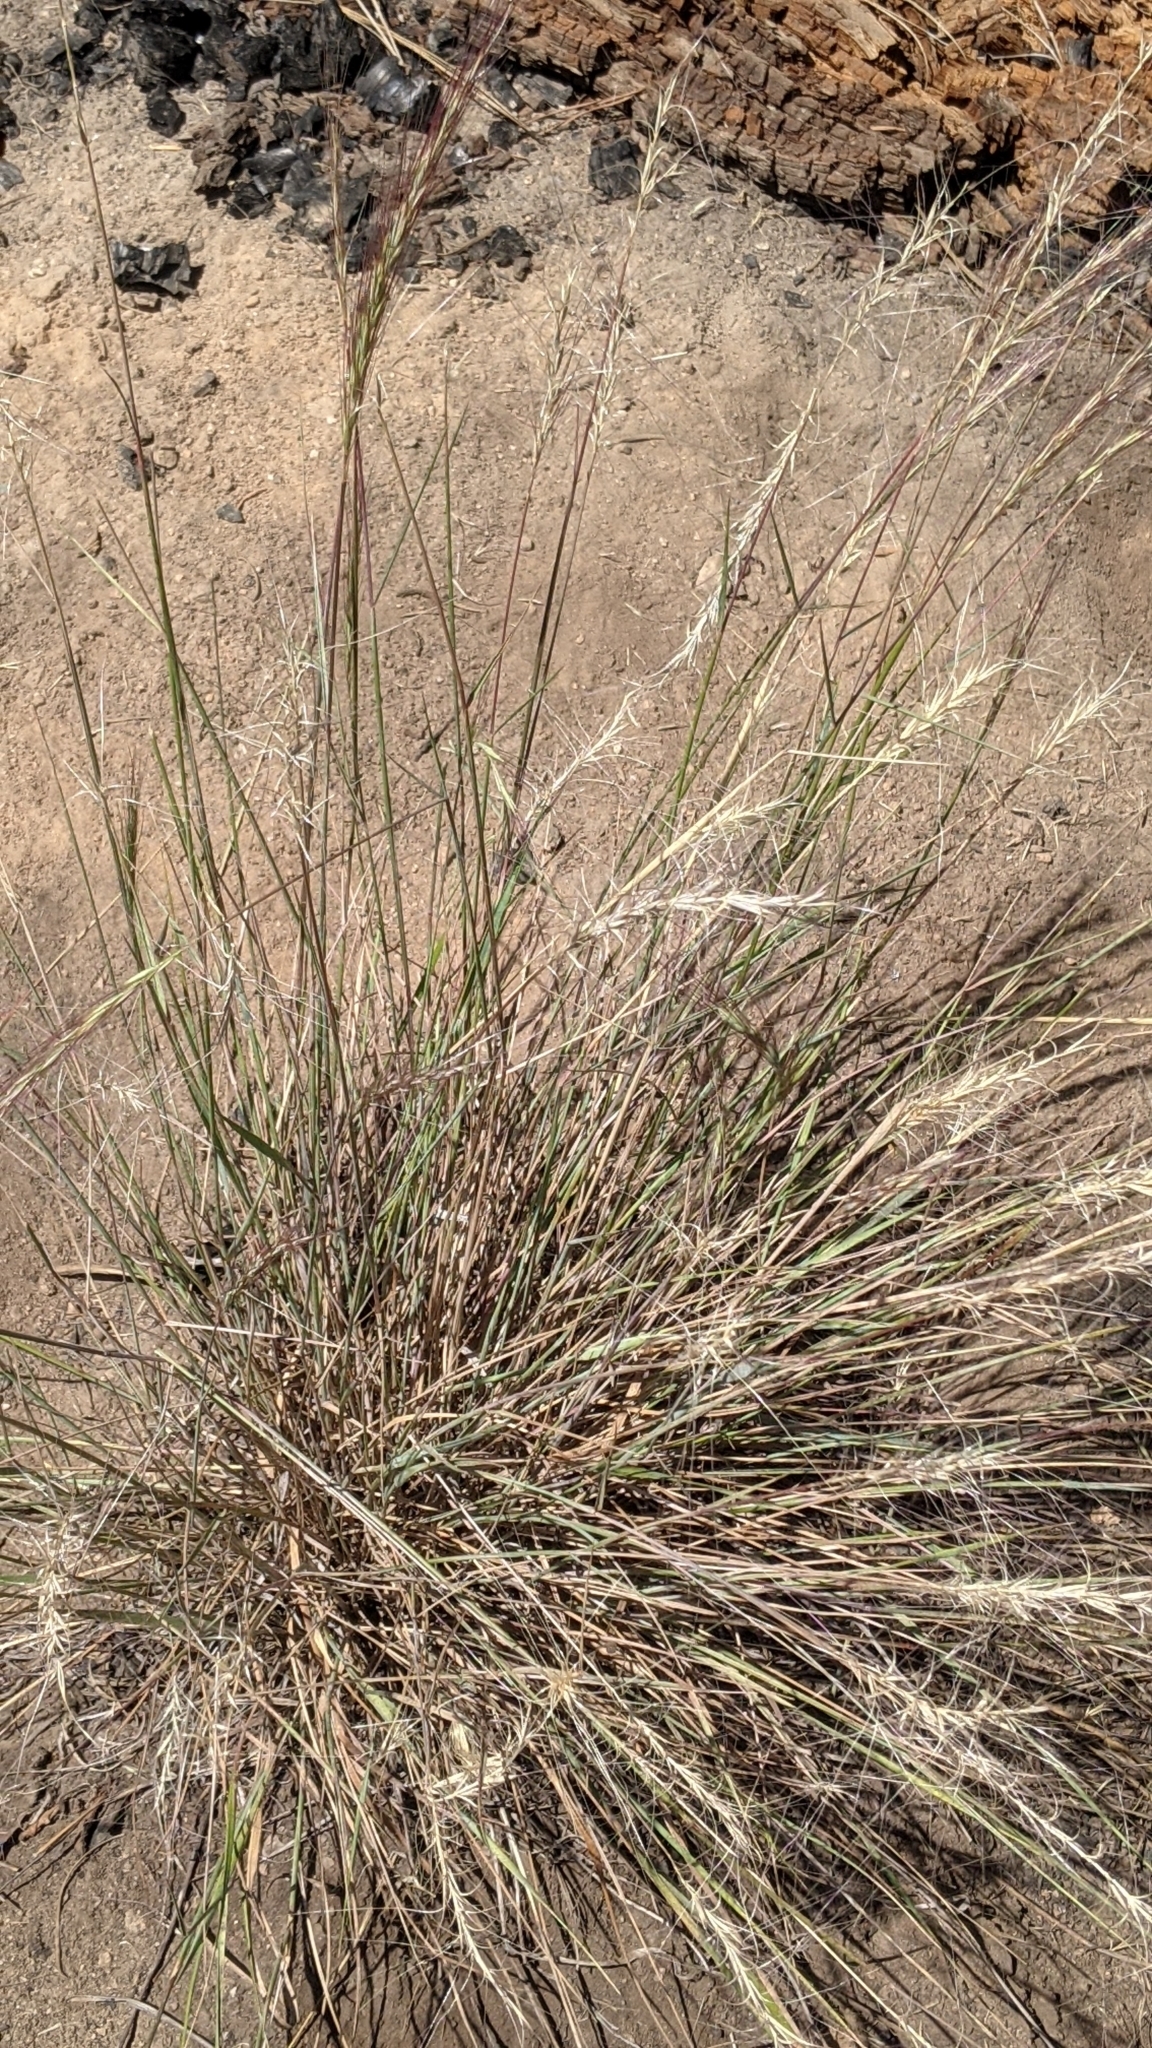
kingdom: Plantae
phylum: Tracheophyta
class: Liliopsida
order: Poales
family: Poaceae
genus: Elymus
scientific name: Elymus elymoides
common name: Bottlebrush squirreltail
